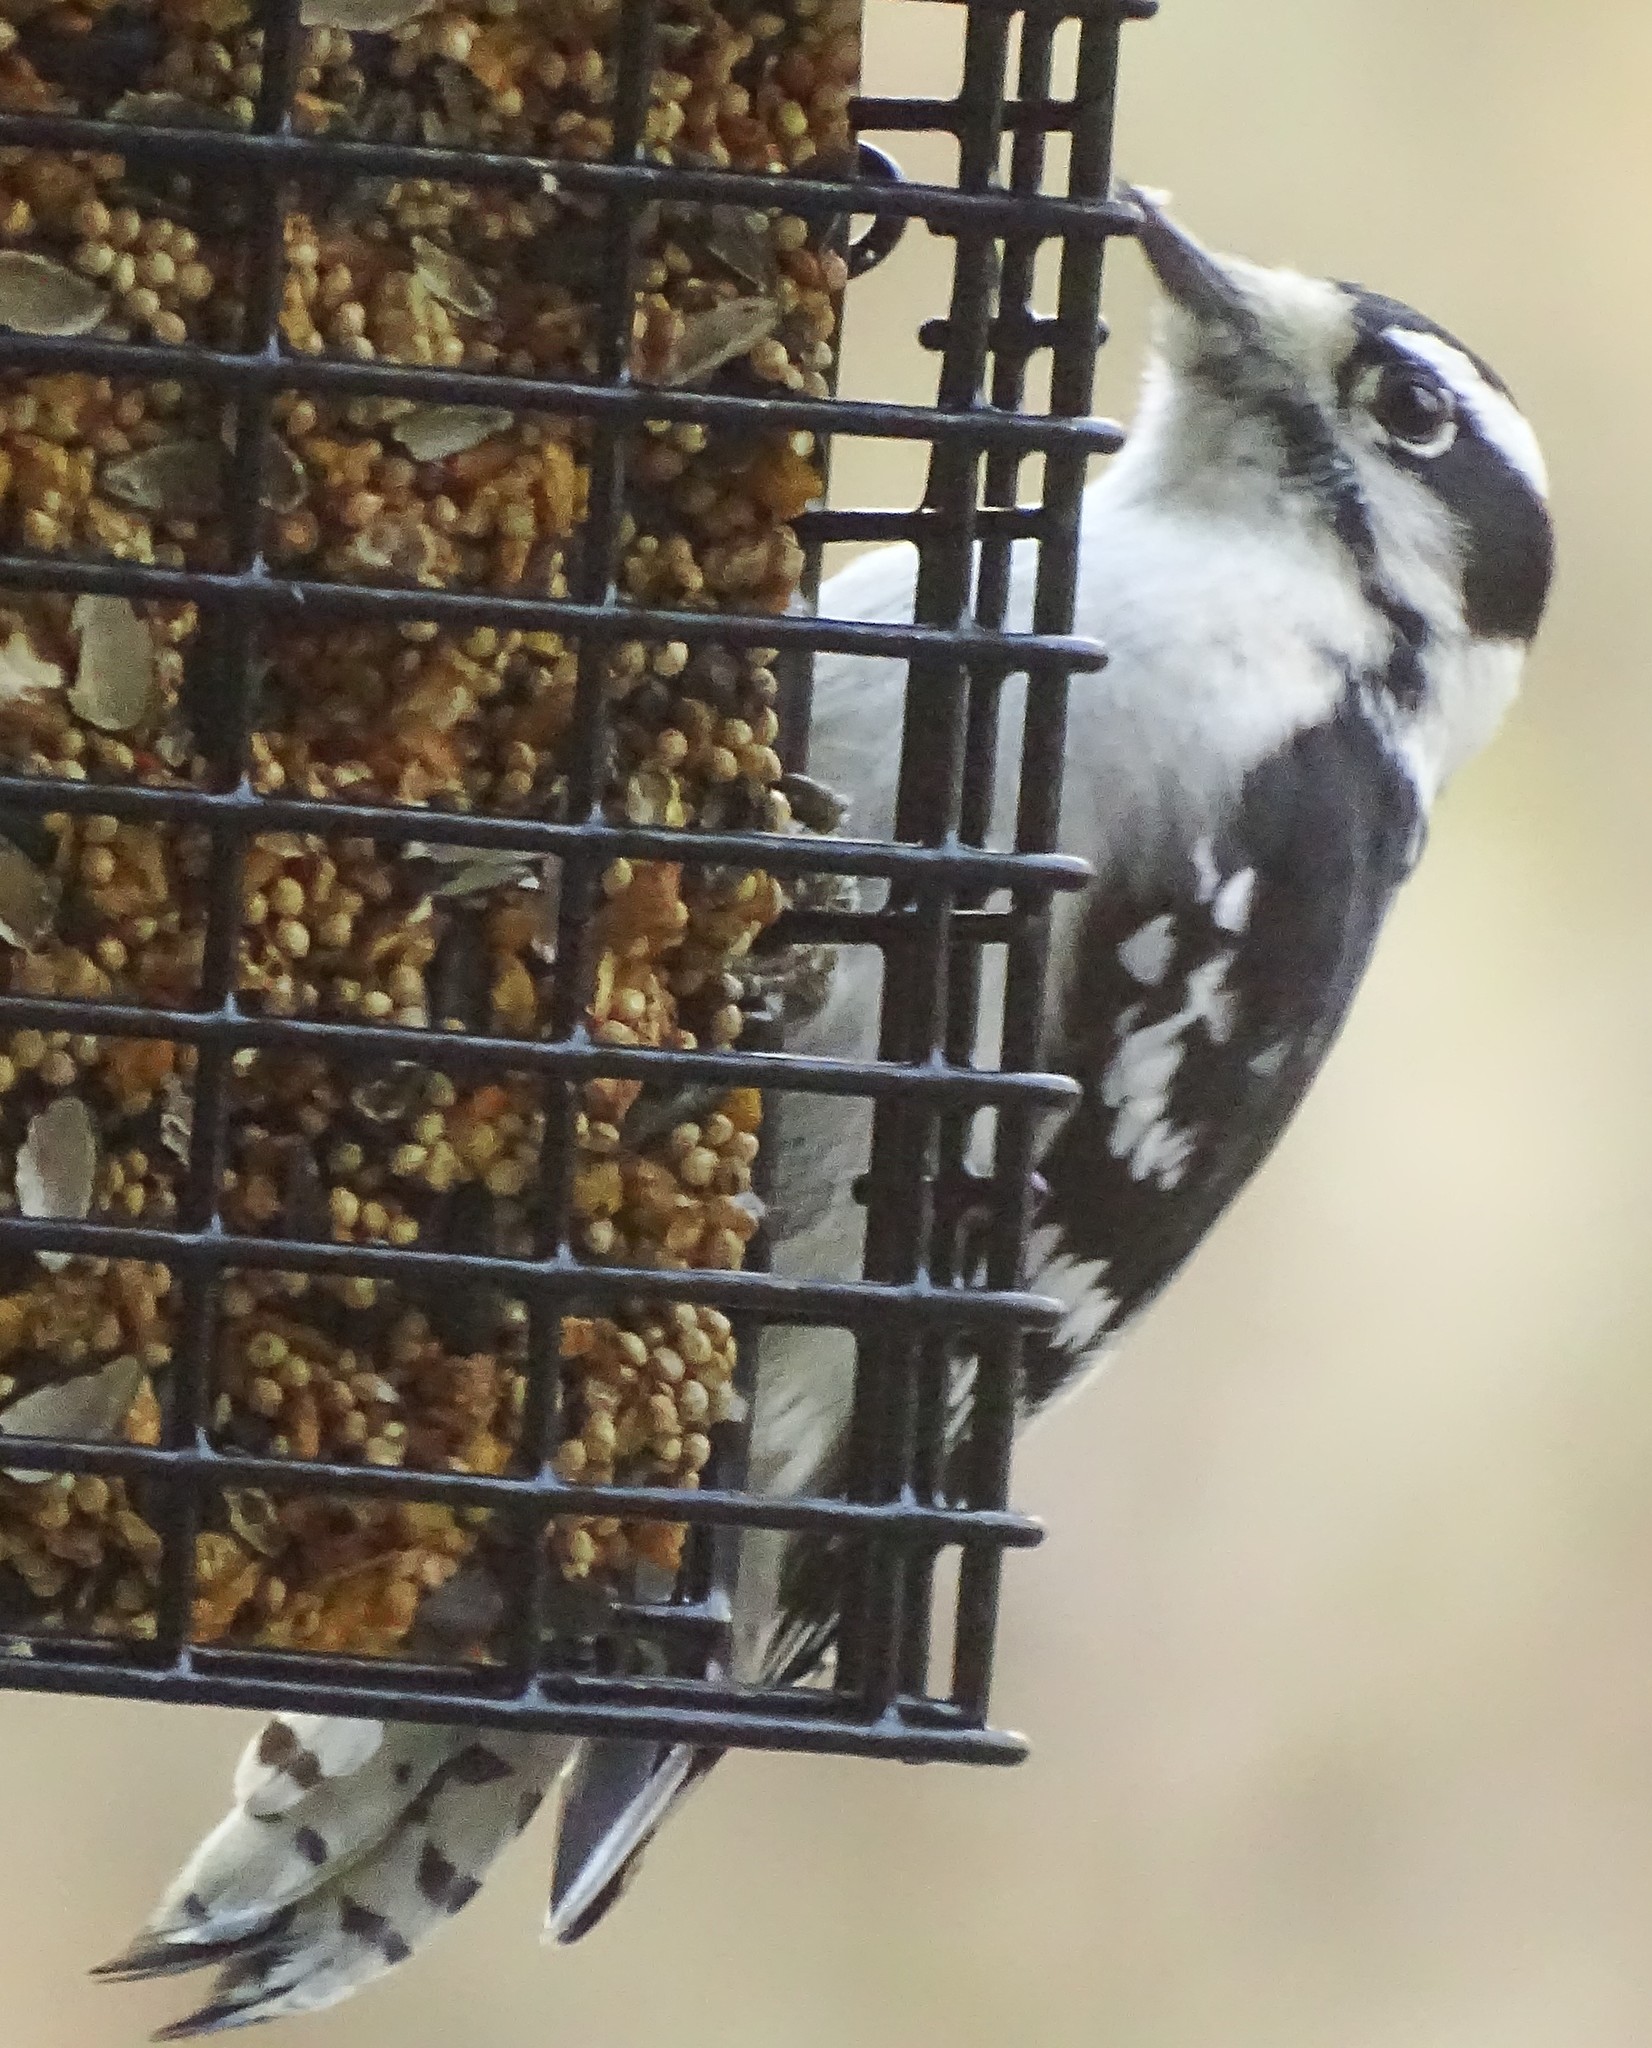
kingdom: Animalia
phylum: Chordata
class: Aves
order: Piciformes
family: Picidae
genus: Dryobates
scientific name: Dryobates pubescens
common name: Downy woodpecker
